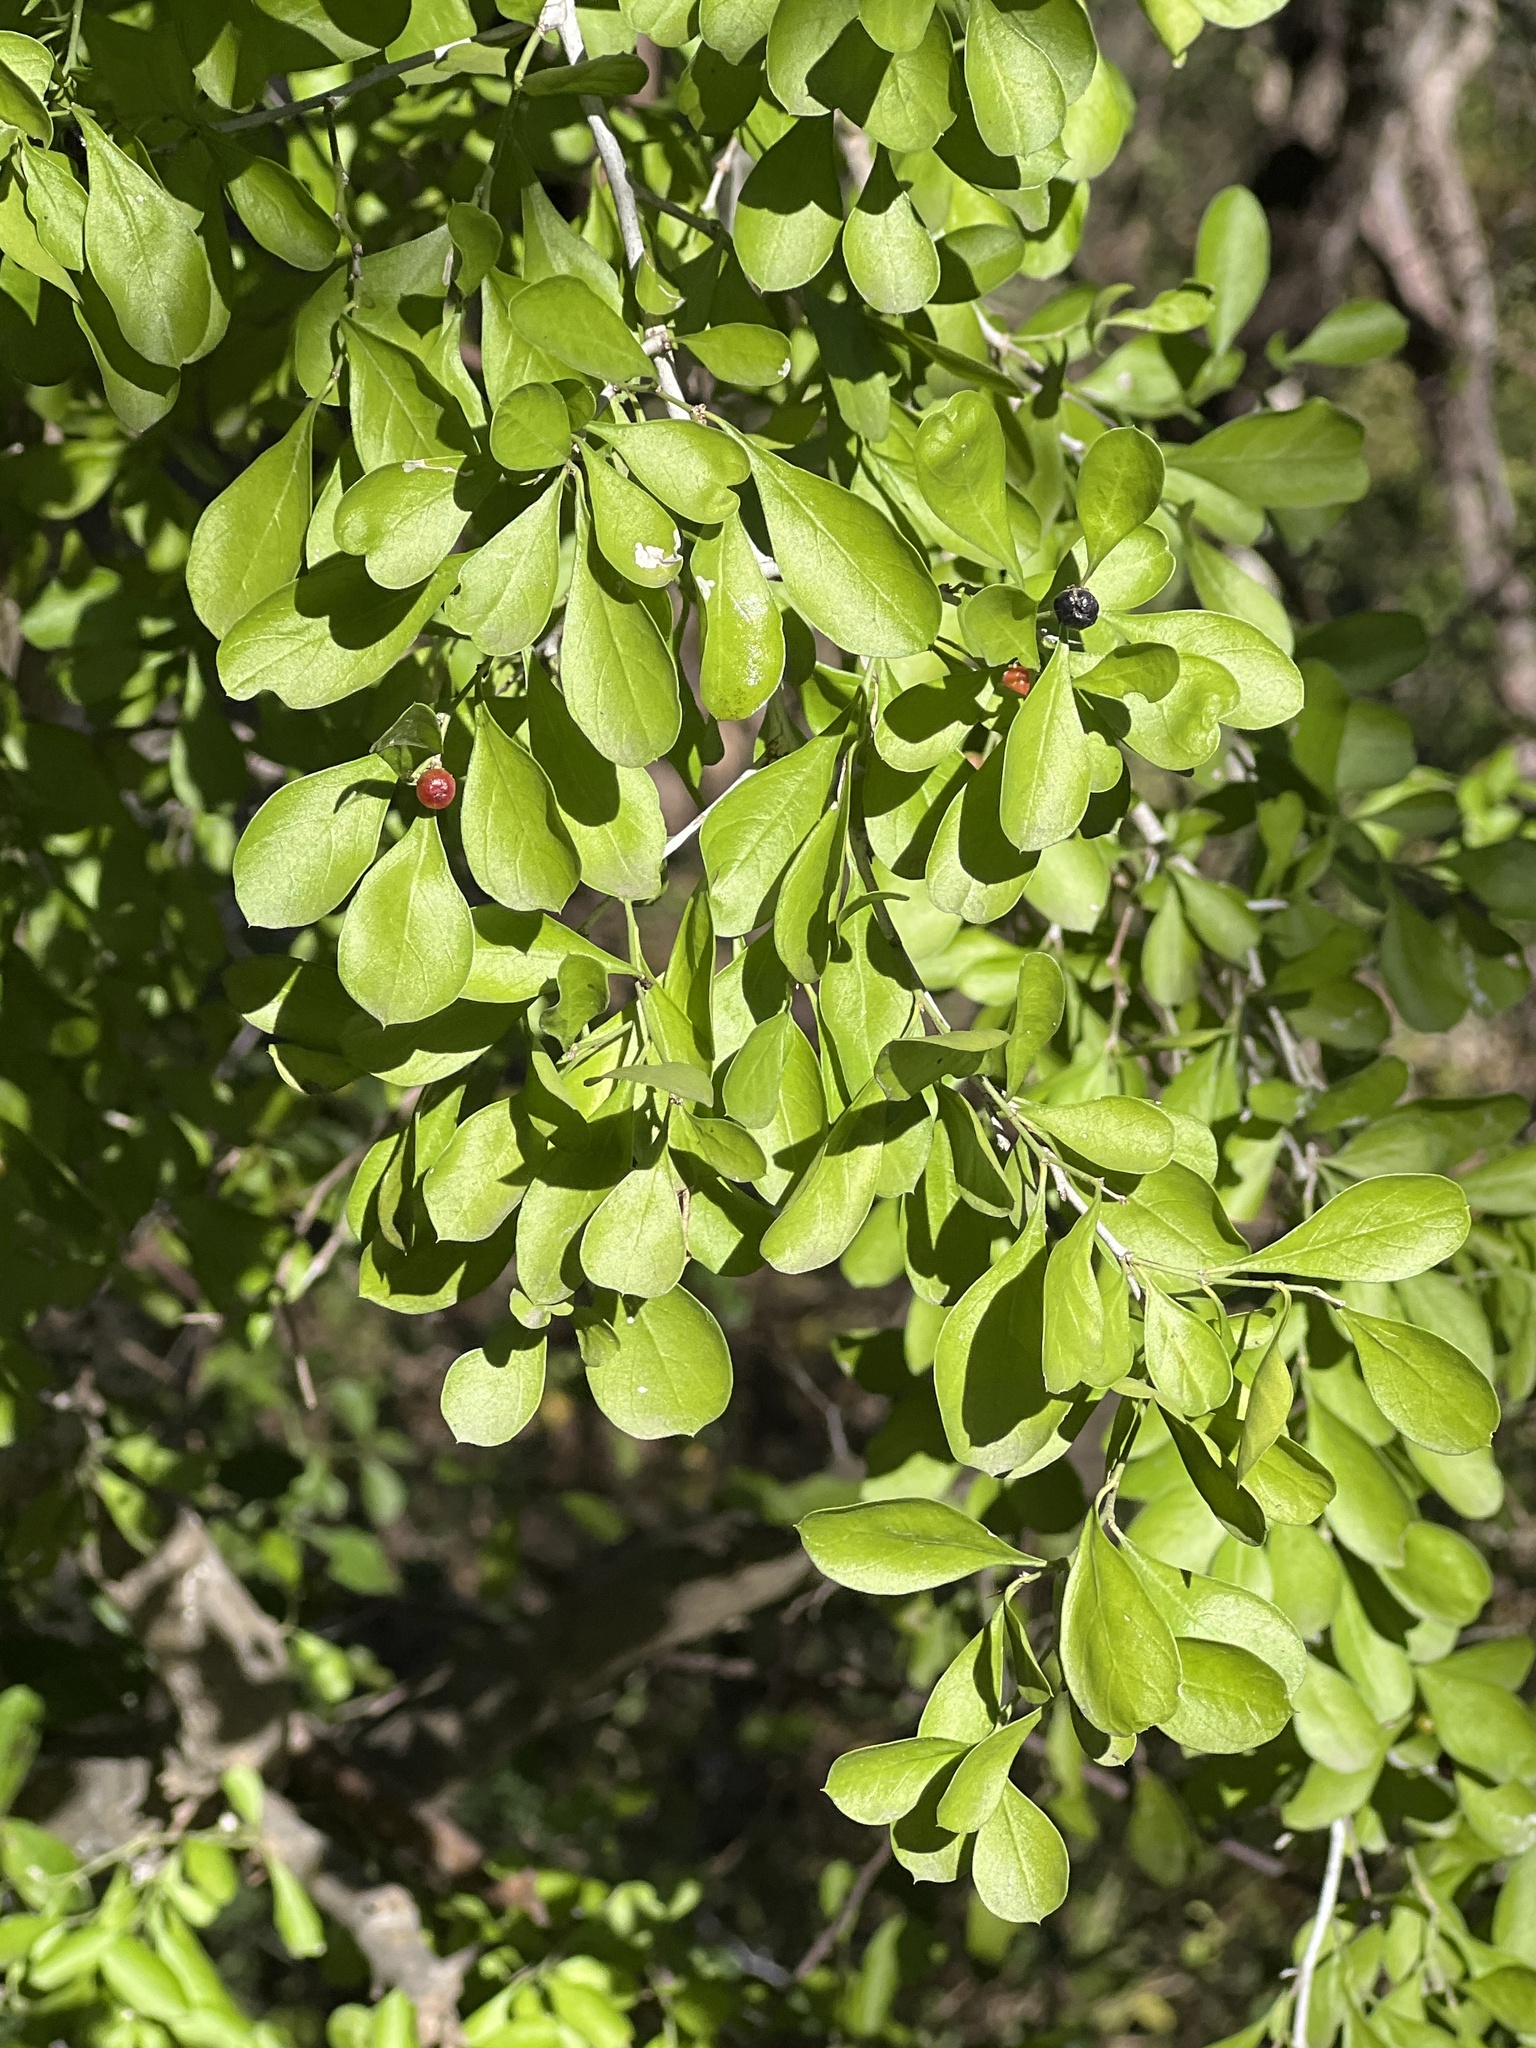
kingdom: Plantae
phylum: Tracheophyta
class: Magnoliopsida
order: Rosales
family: Rhamnaceae
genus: Condalia
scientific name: Condalia hookeri
